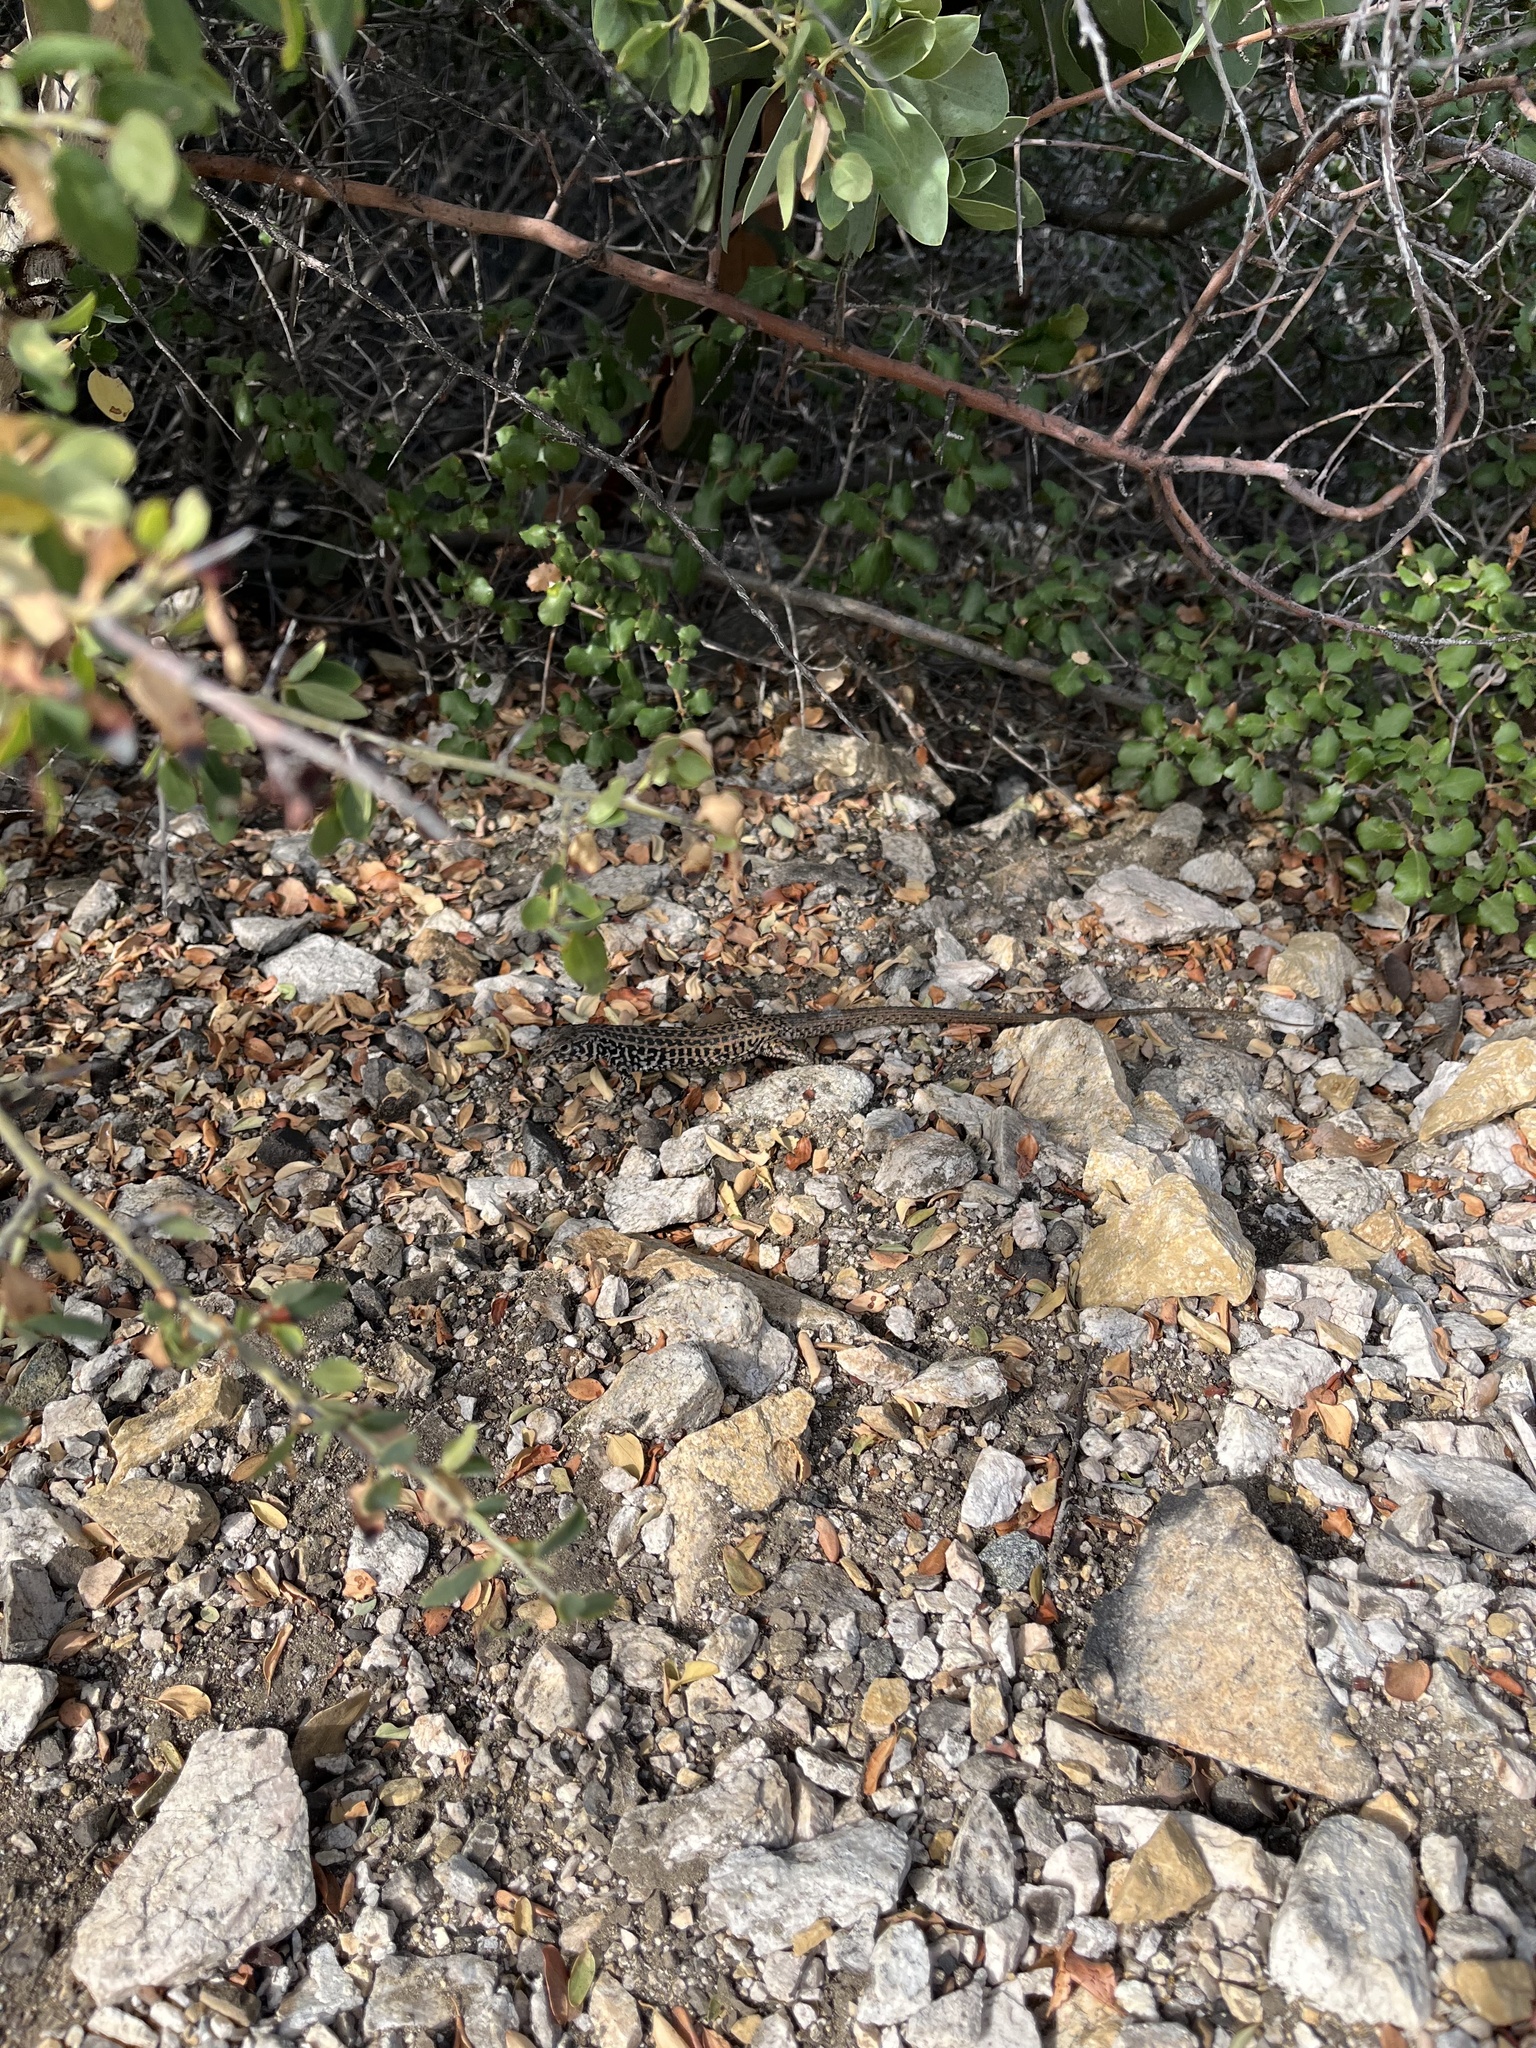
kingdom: Animalia
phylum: Chordata
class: Squamata
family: Teiidae
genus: Aspidoscelis
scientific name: Aspidoscelis tigris
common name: Tiger whiptail
